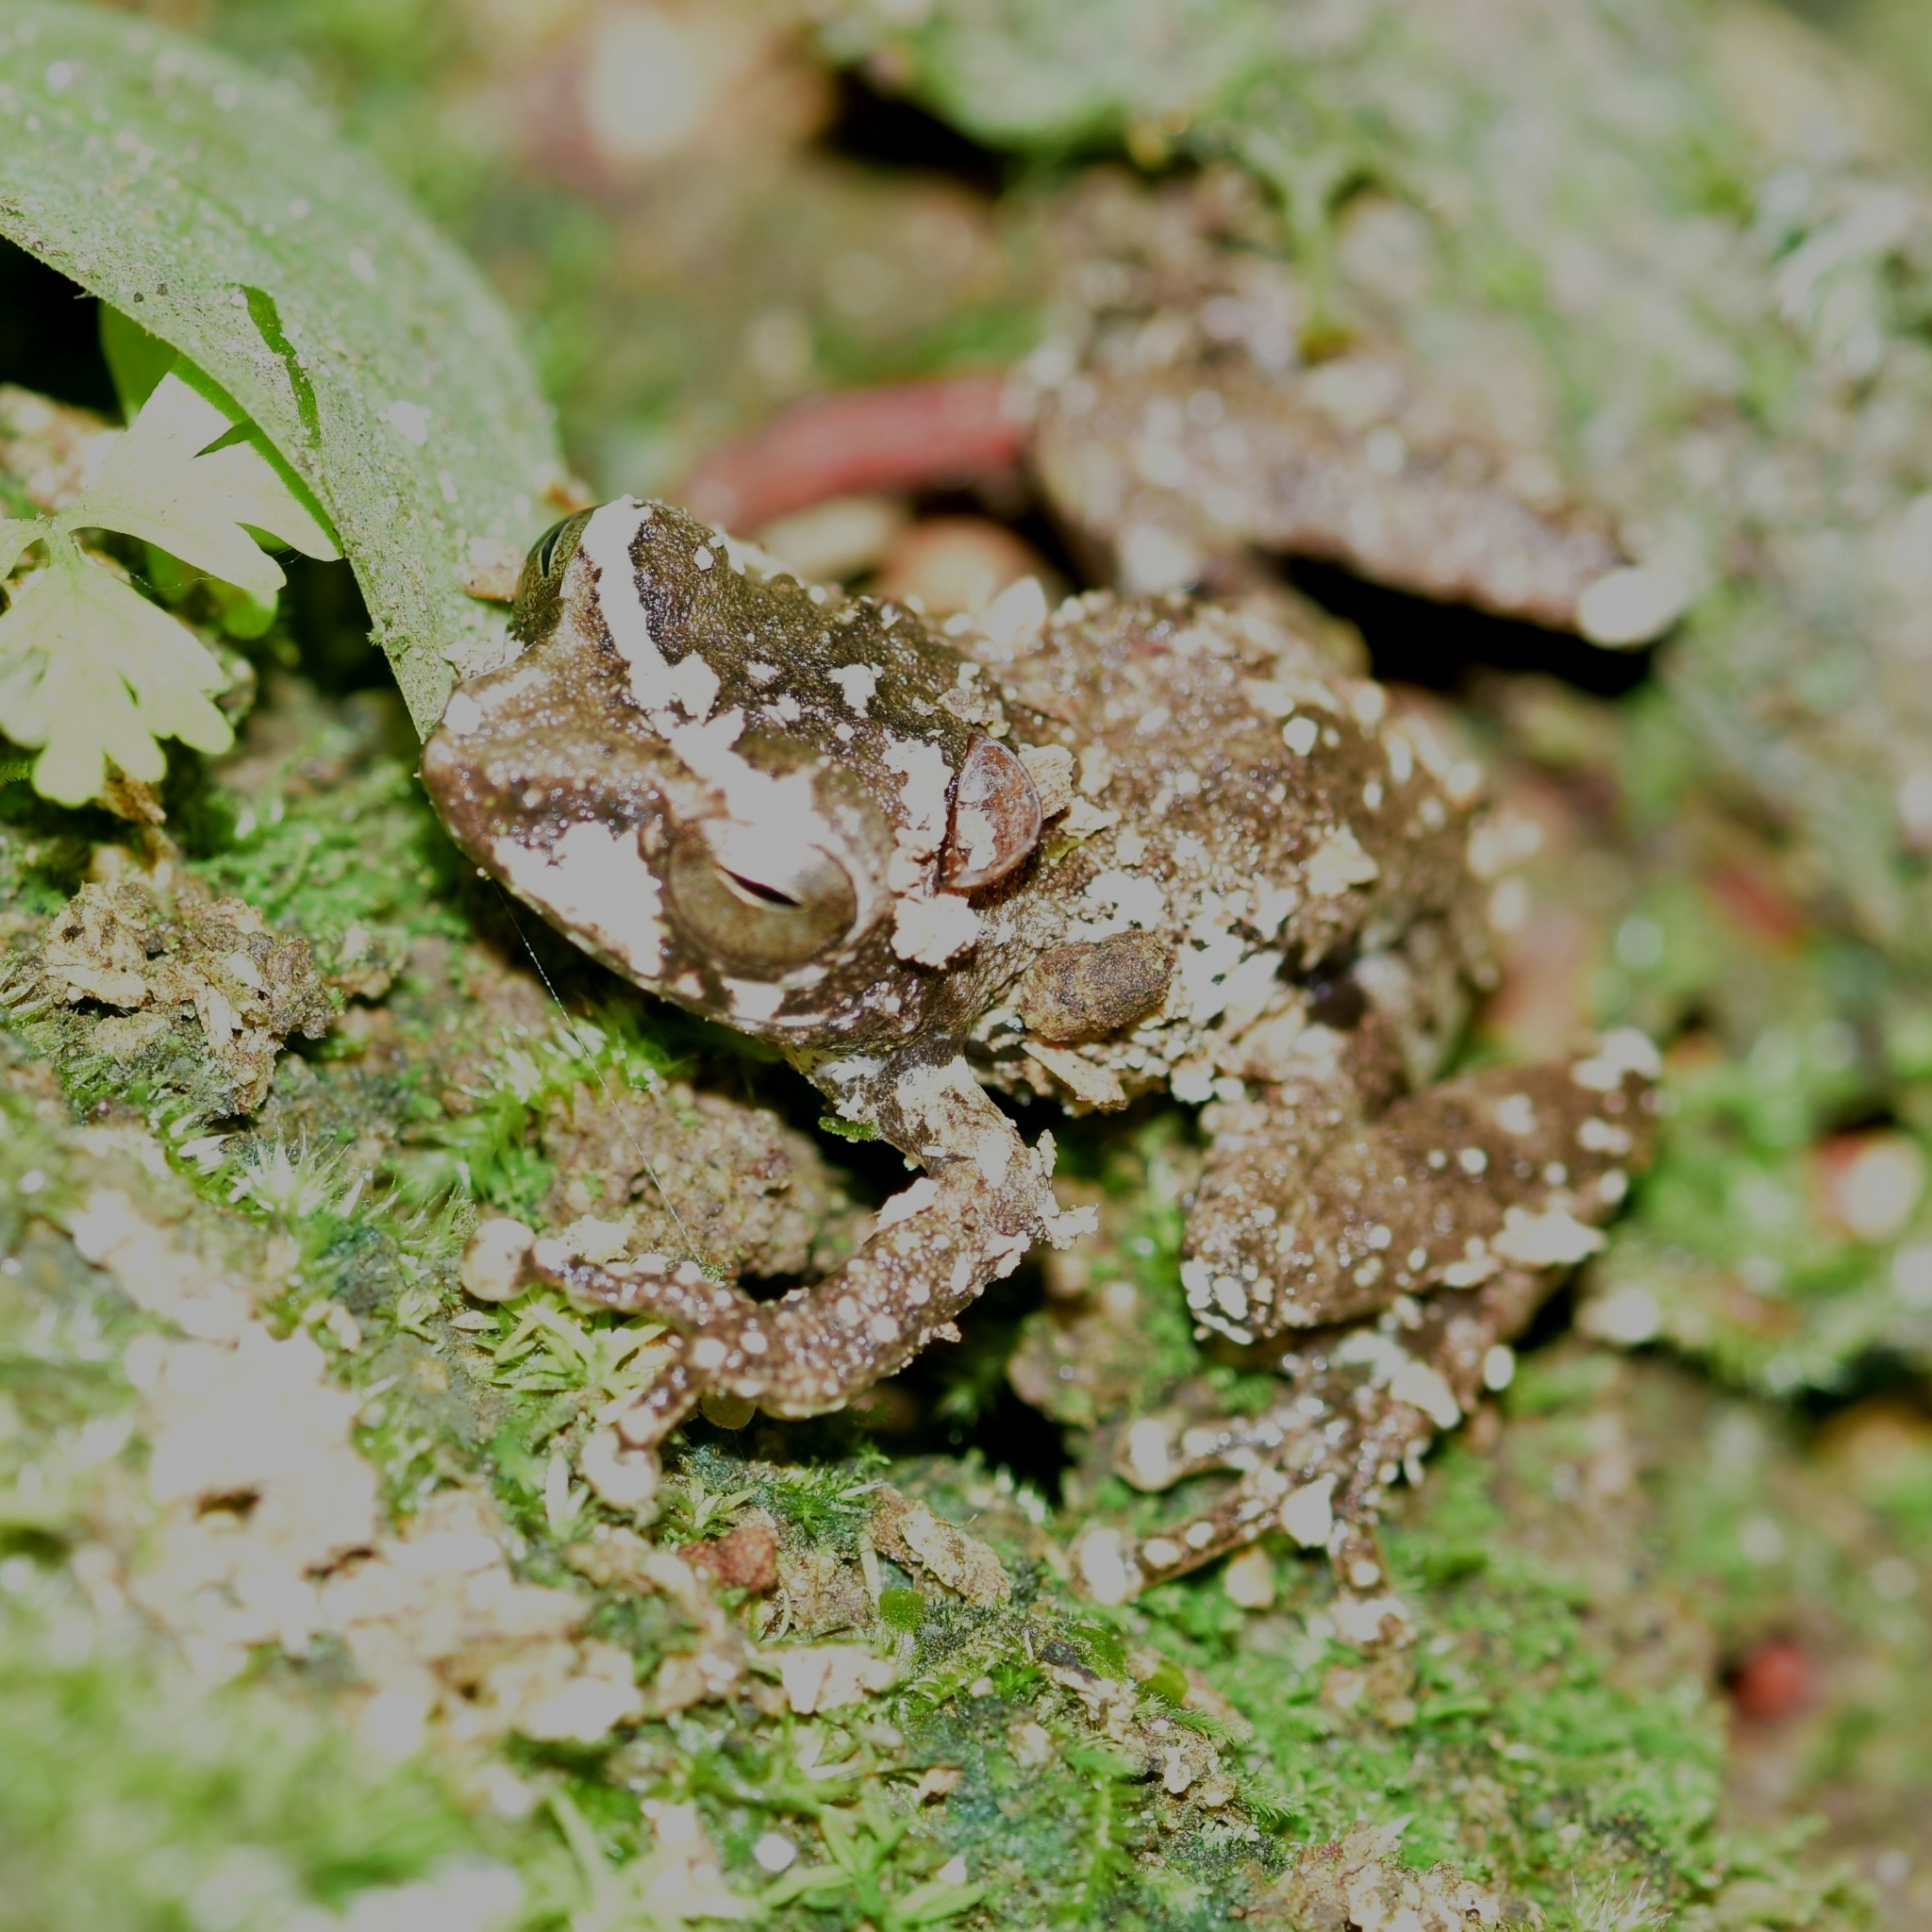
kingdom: Animalia
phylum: Chordata
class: Amphibia
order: Anura
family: Rhacophoridae
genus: Raorchestes
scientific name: Raorchestes anili
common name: Anil's bush frog
